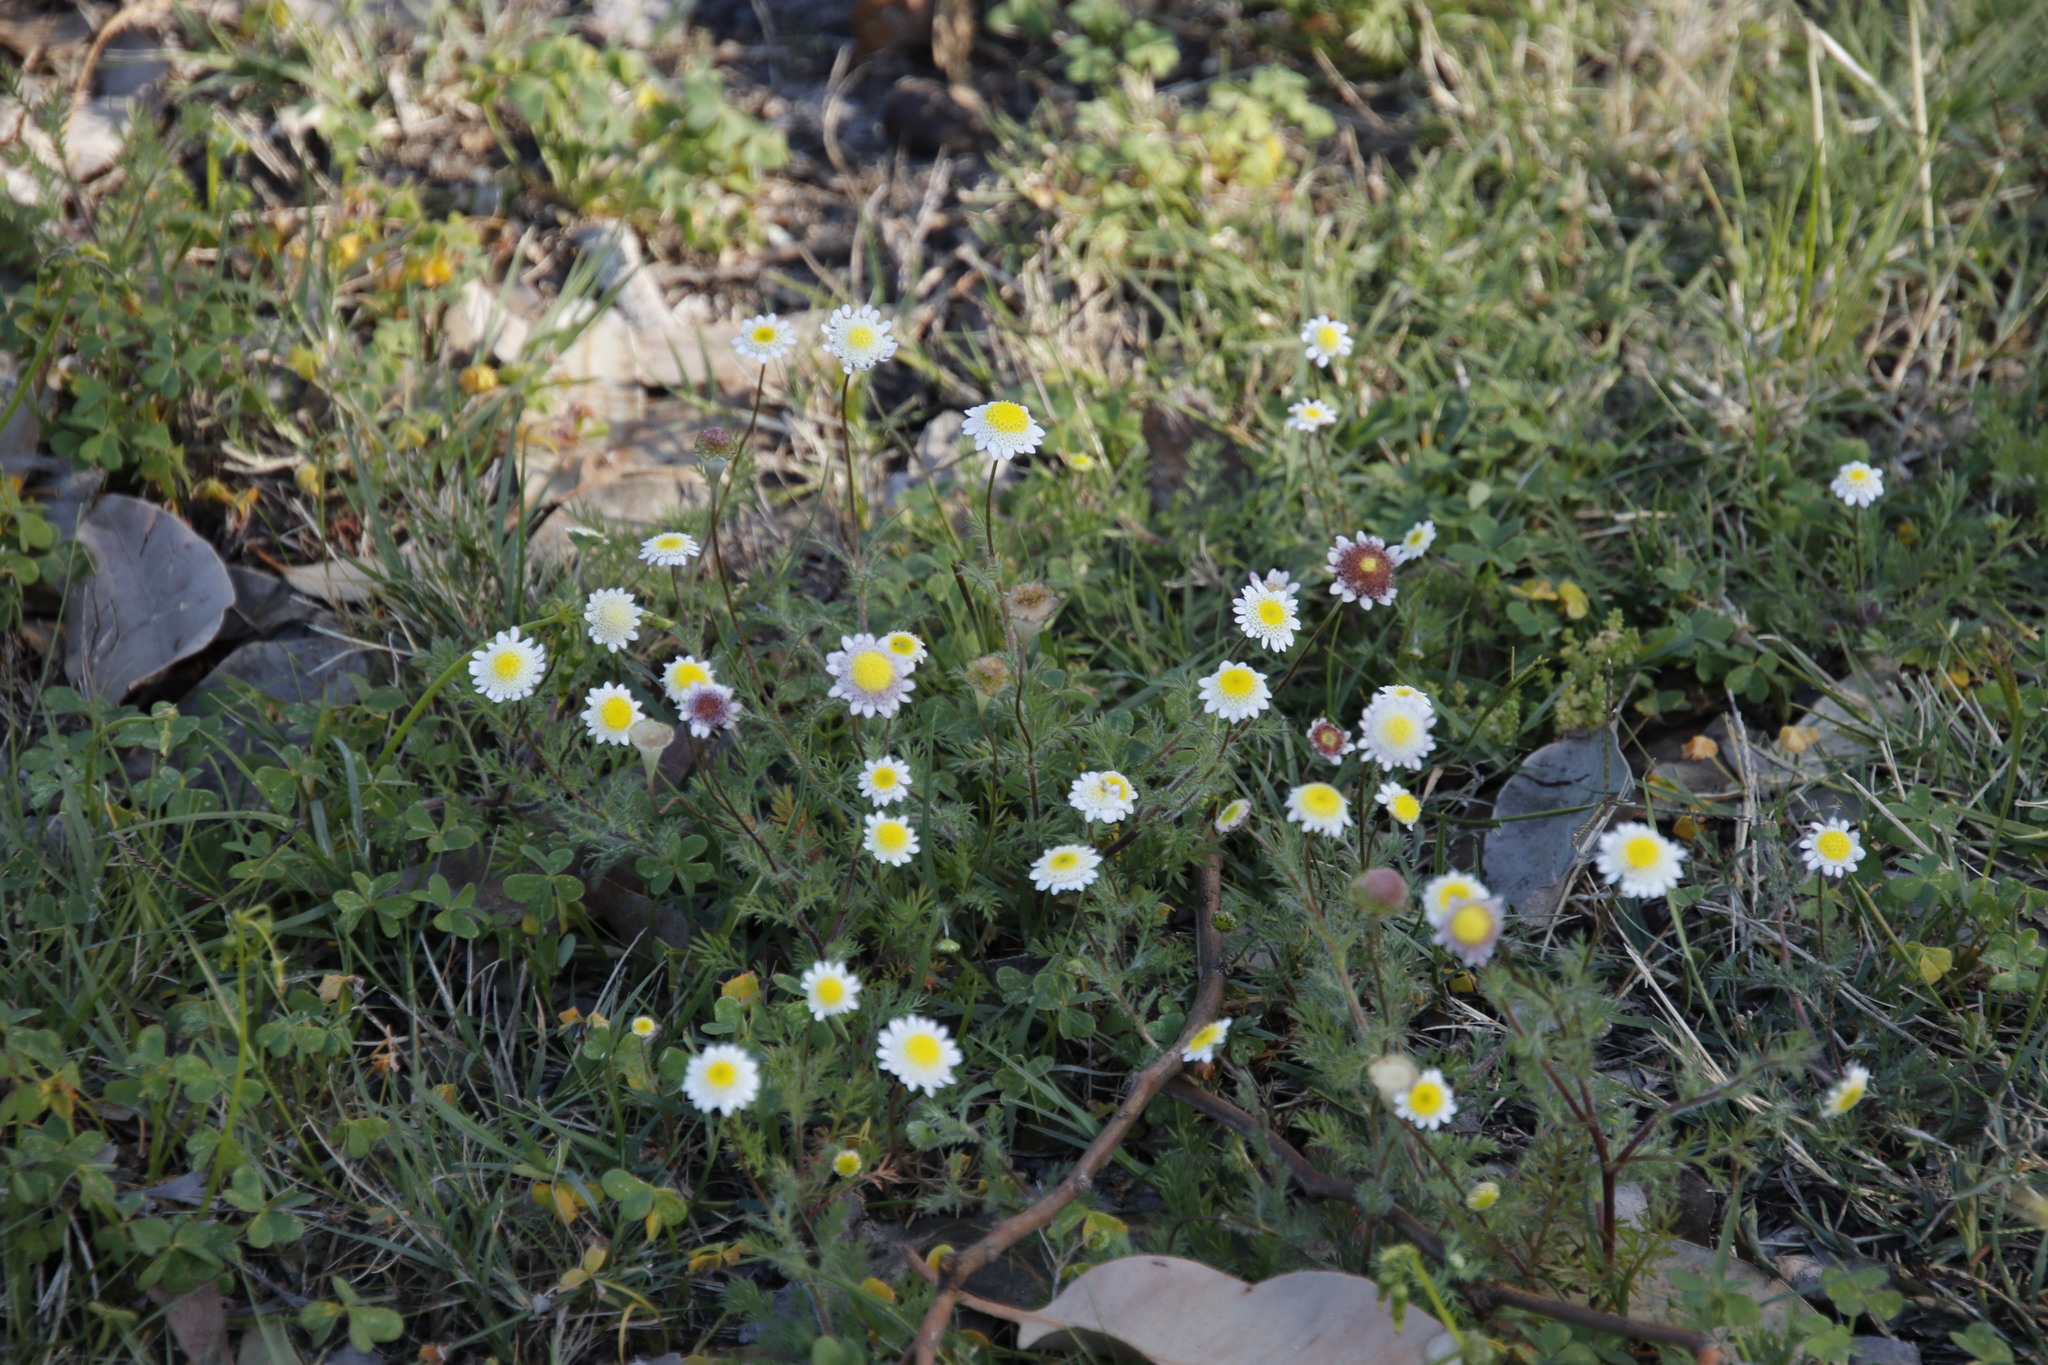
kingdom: Plantae
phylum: Tracheophyta
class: Magnoliopsida
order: Asterales
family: Asteraceae
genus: Cotula
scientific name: Cotula turbinata
